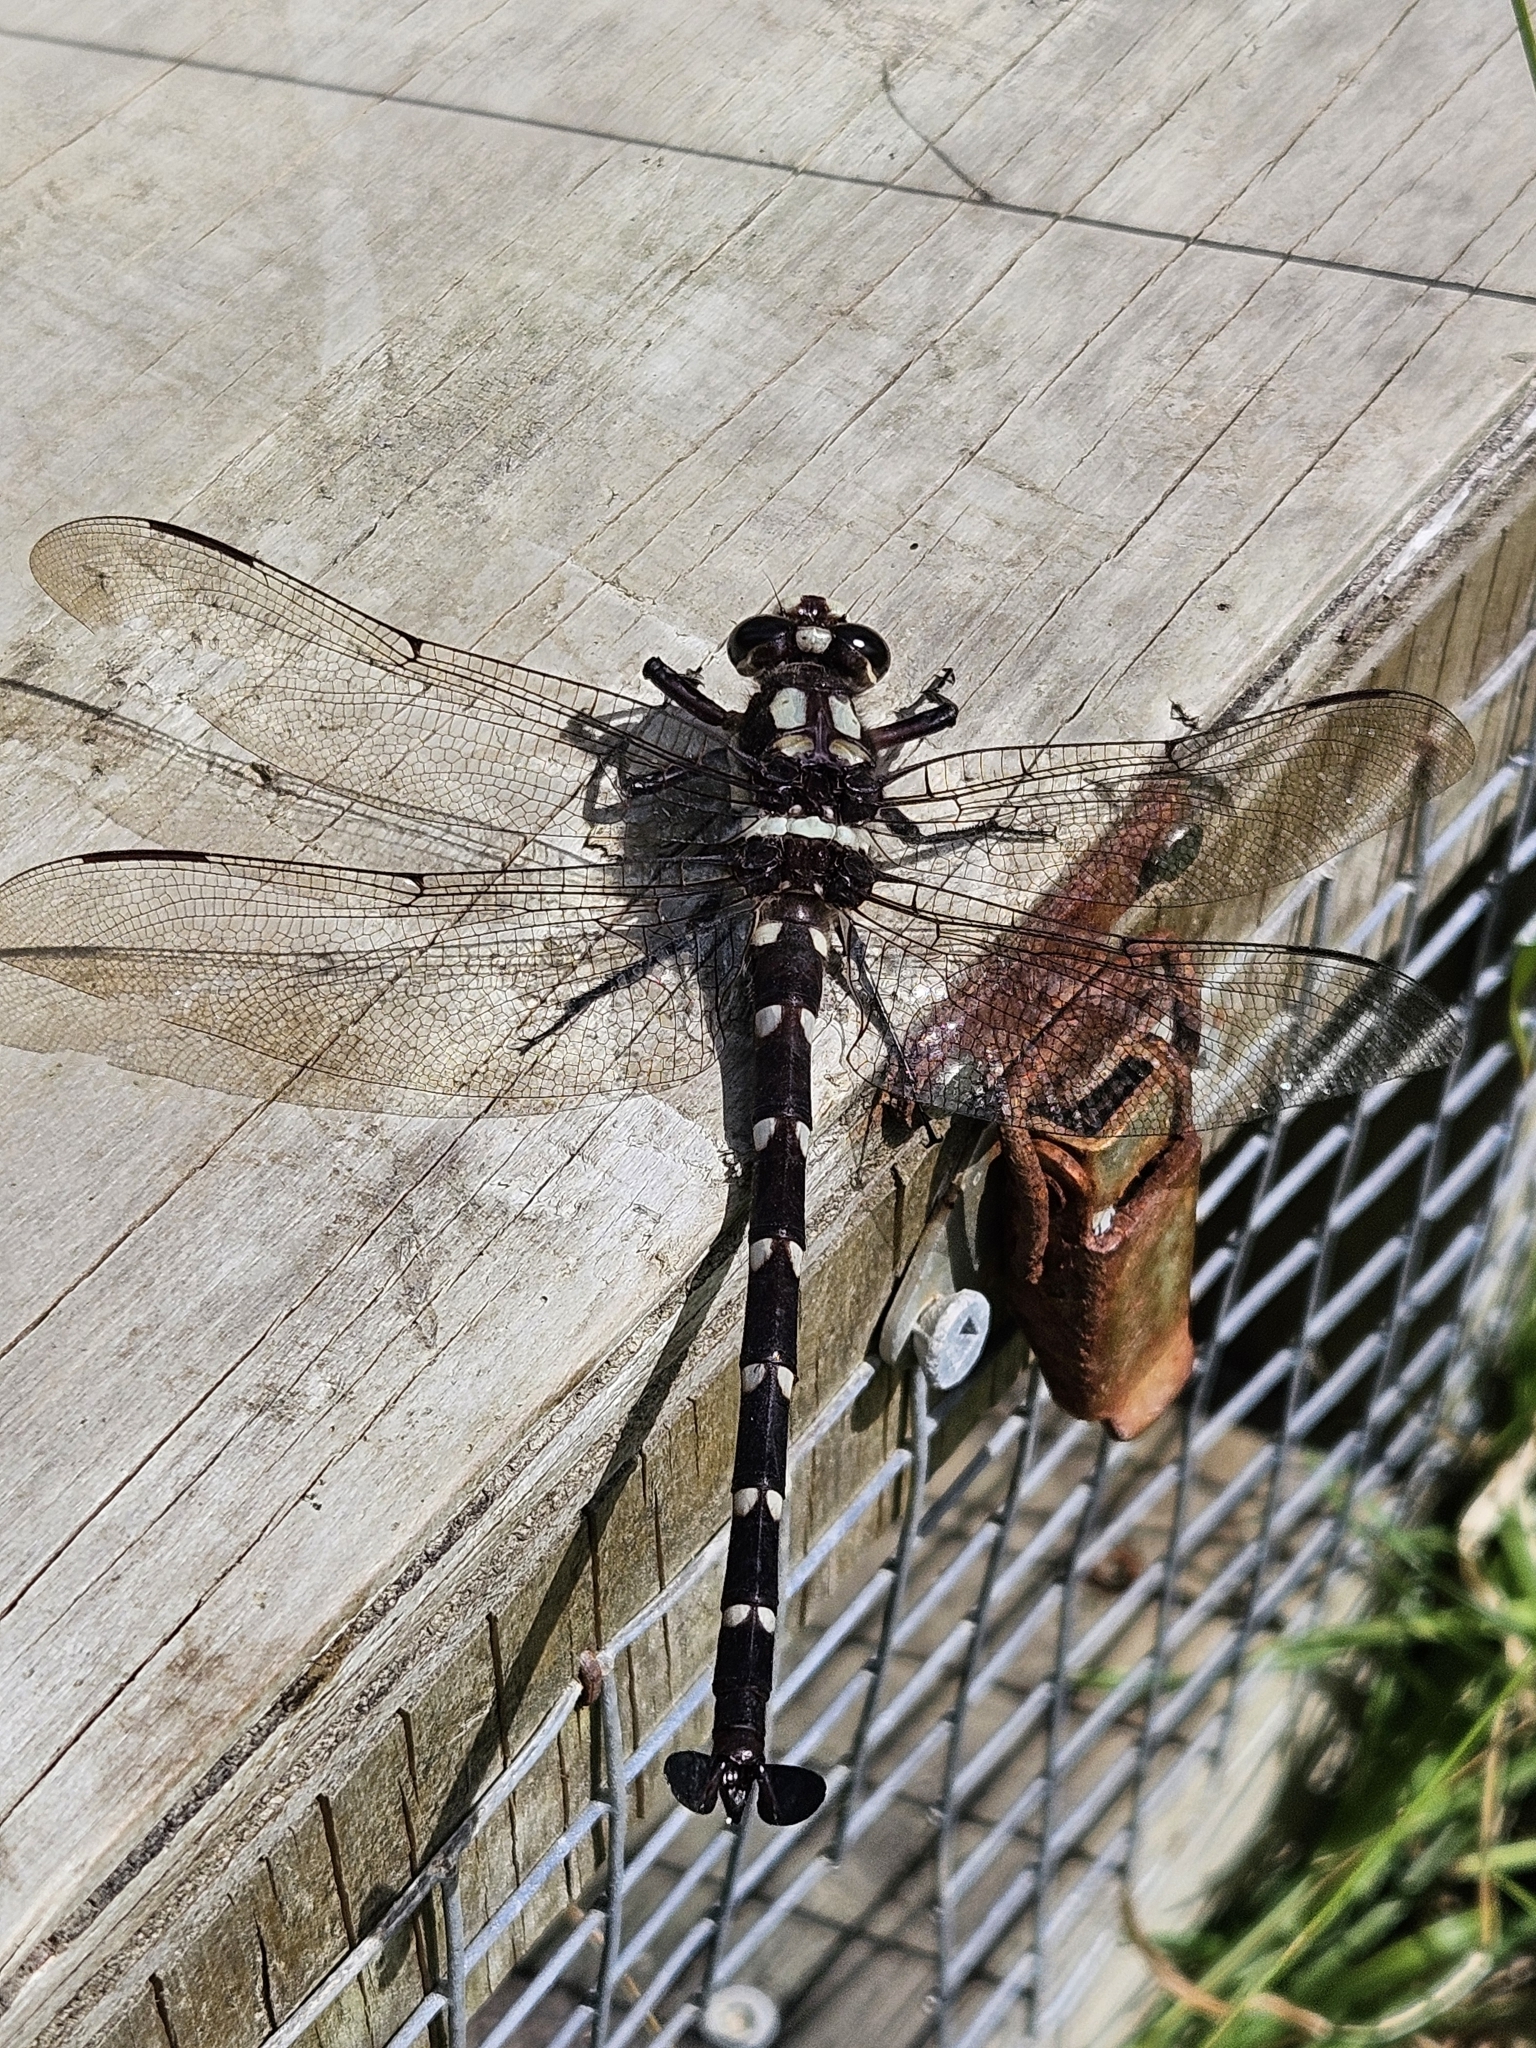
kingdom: Animalia
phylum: Arthropoda
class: Insecta
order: Odonata
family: Petaluridae
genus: Uropetala
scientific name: Uropetala carovei
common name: Bush giant dragonfly
